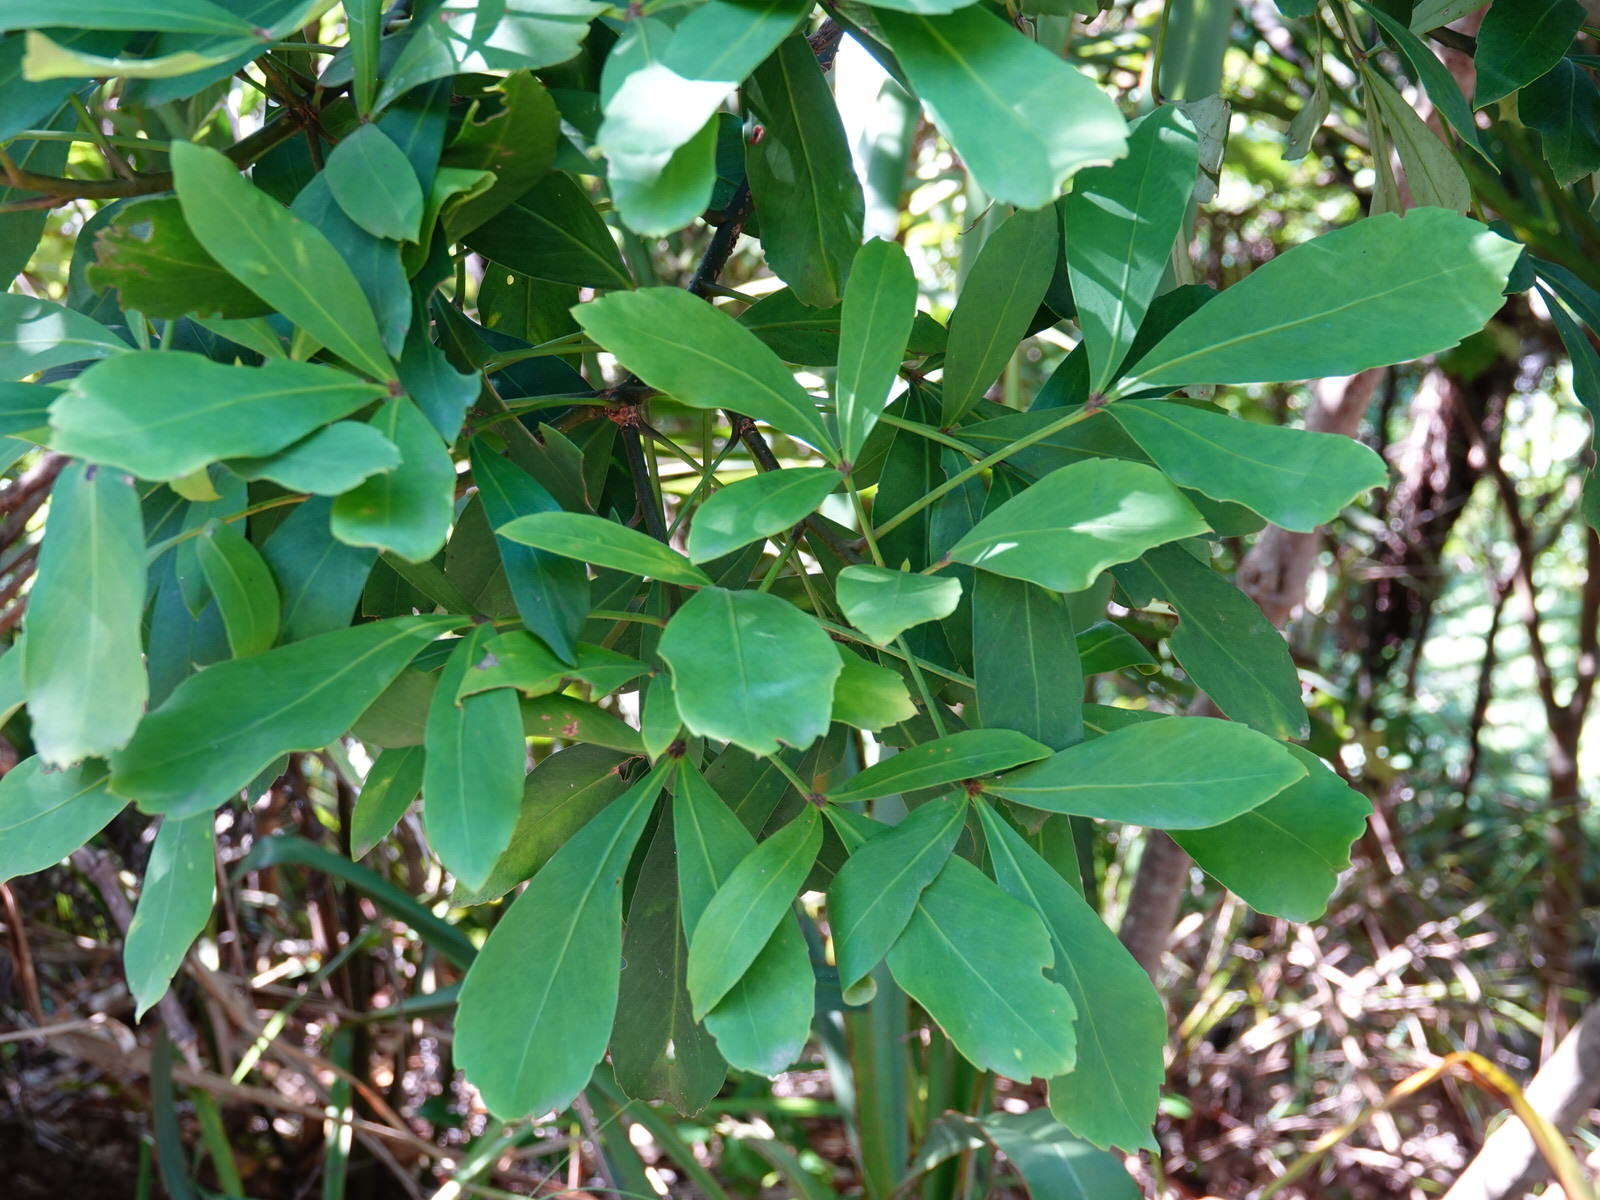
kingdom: Plantae
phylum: Tracheophyta
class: Magnoliopsida
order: Apiales
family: Araliaceae
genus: Pseudopanax
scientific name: Pseudopanax lessonii
